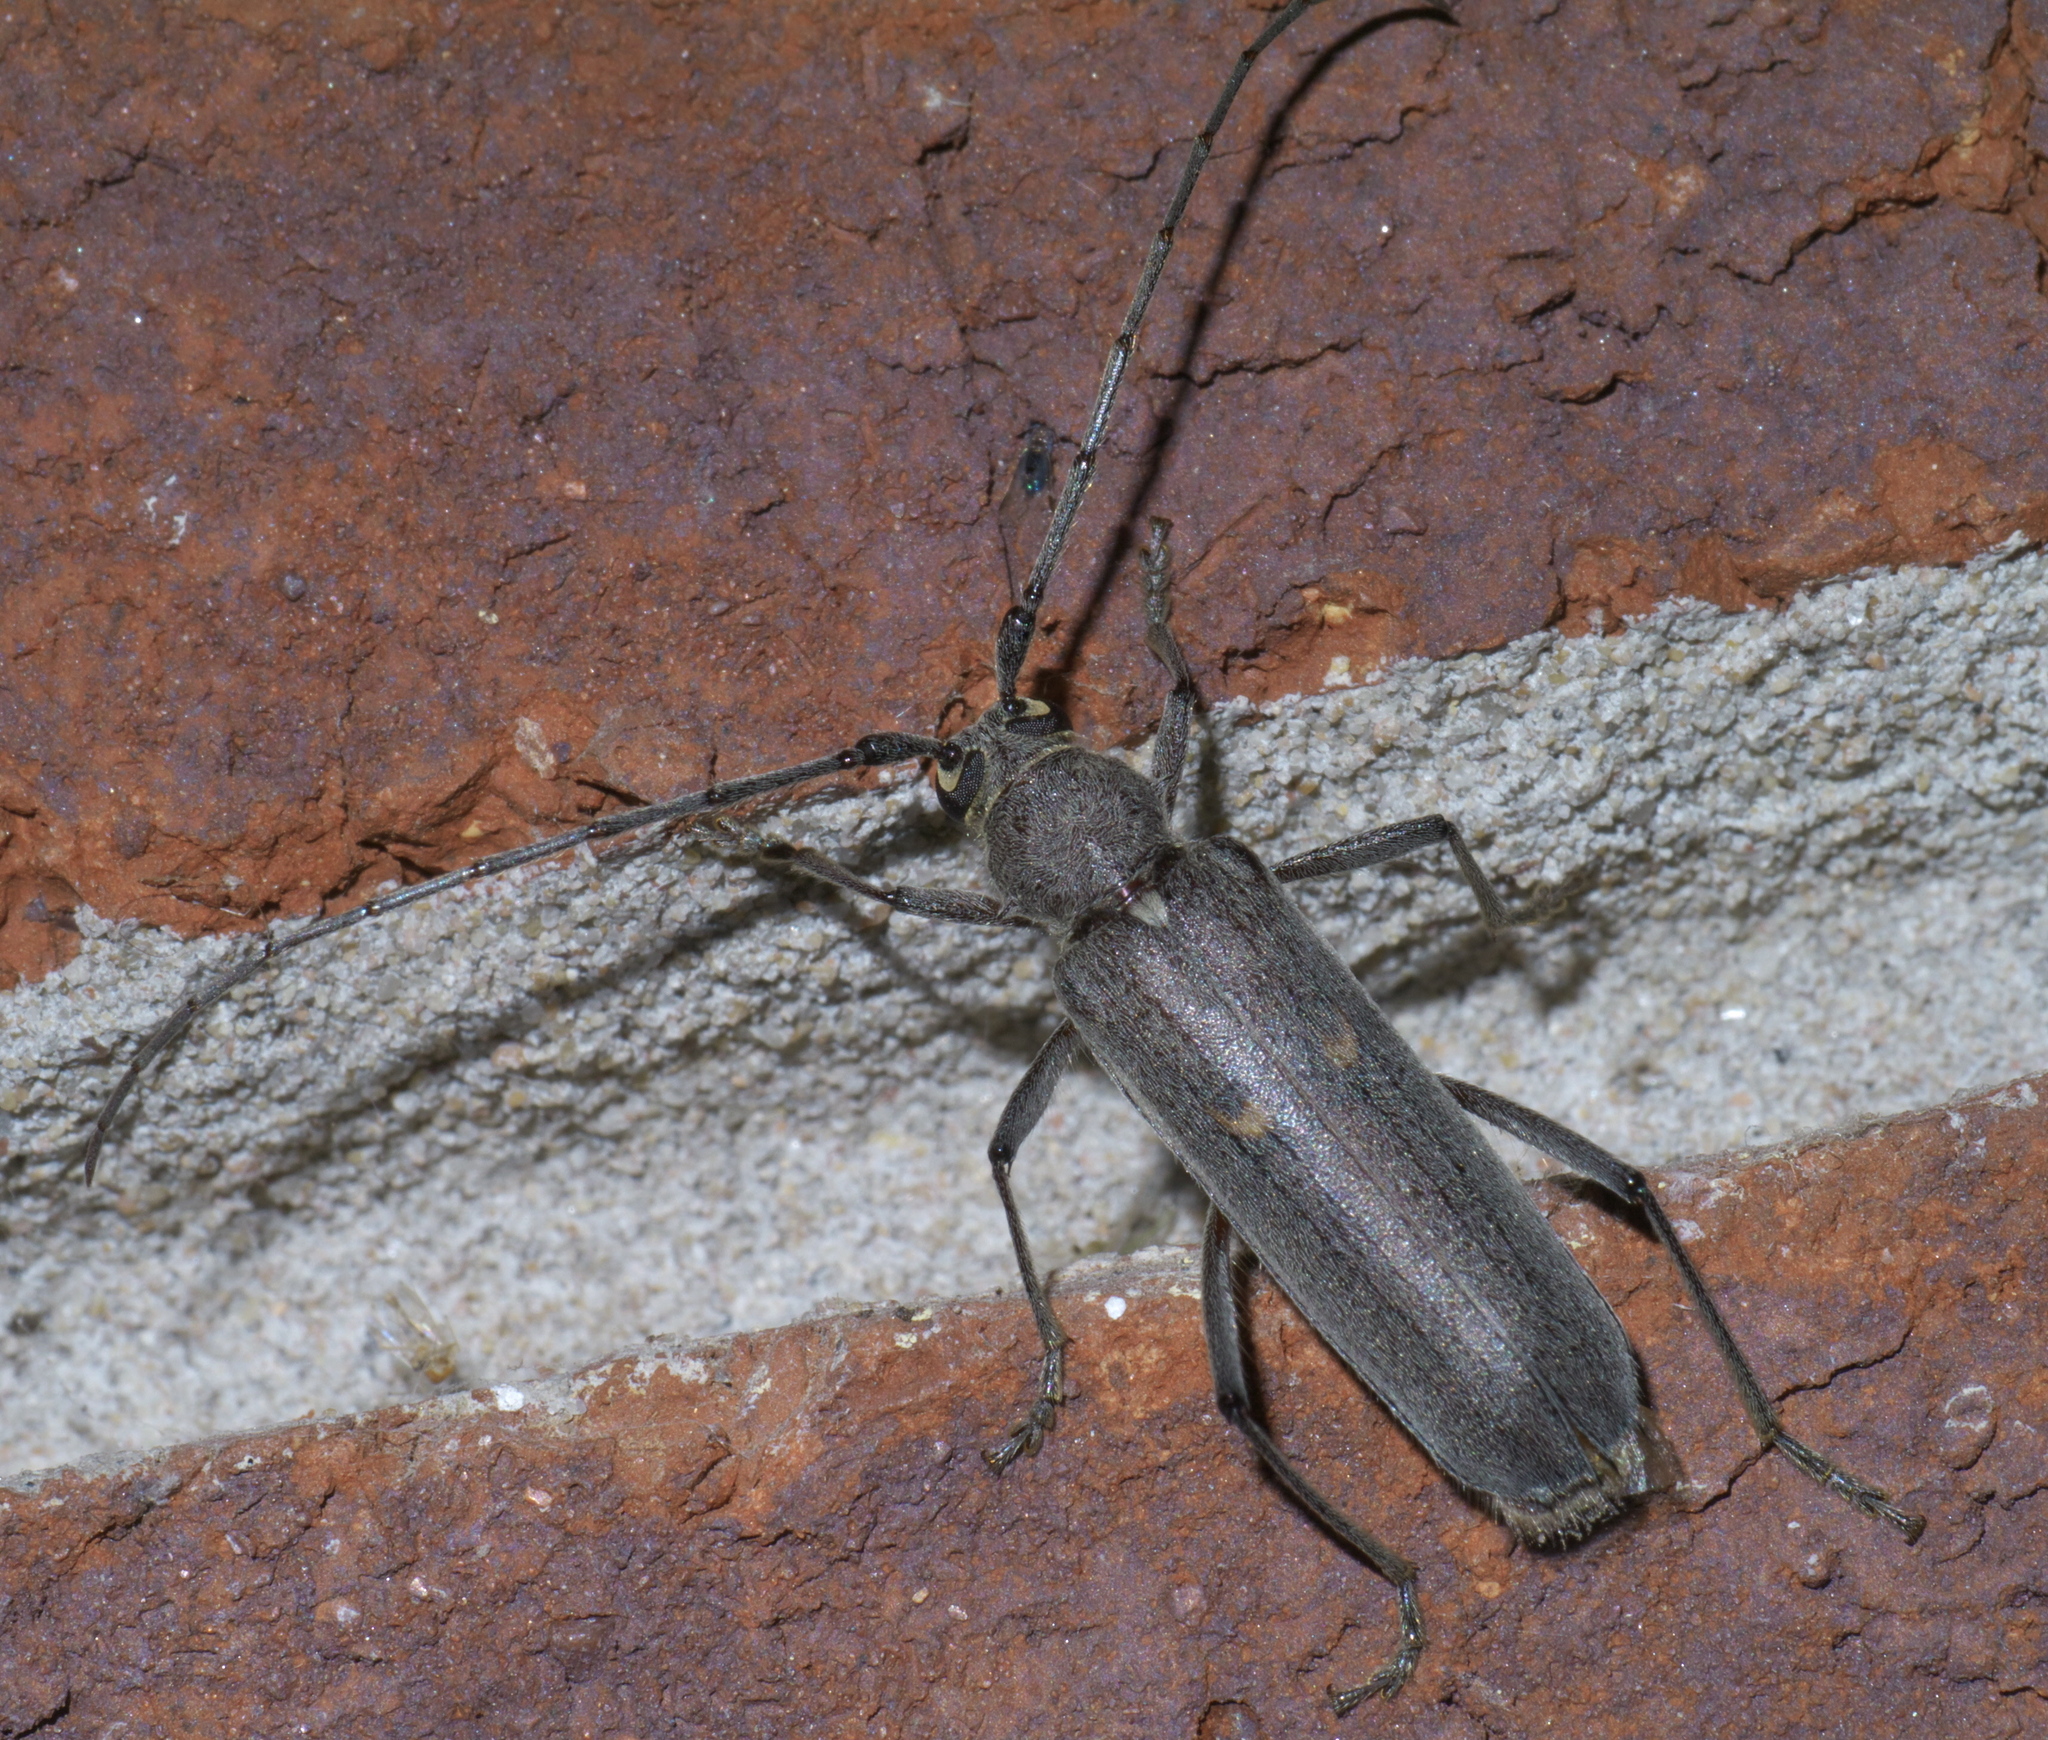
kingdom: Animalia
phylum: Arthropoda
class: Insecta
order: Coleoptera
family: Cerambycidae
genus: Knulliana
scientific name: Knulliana cincta
